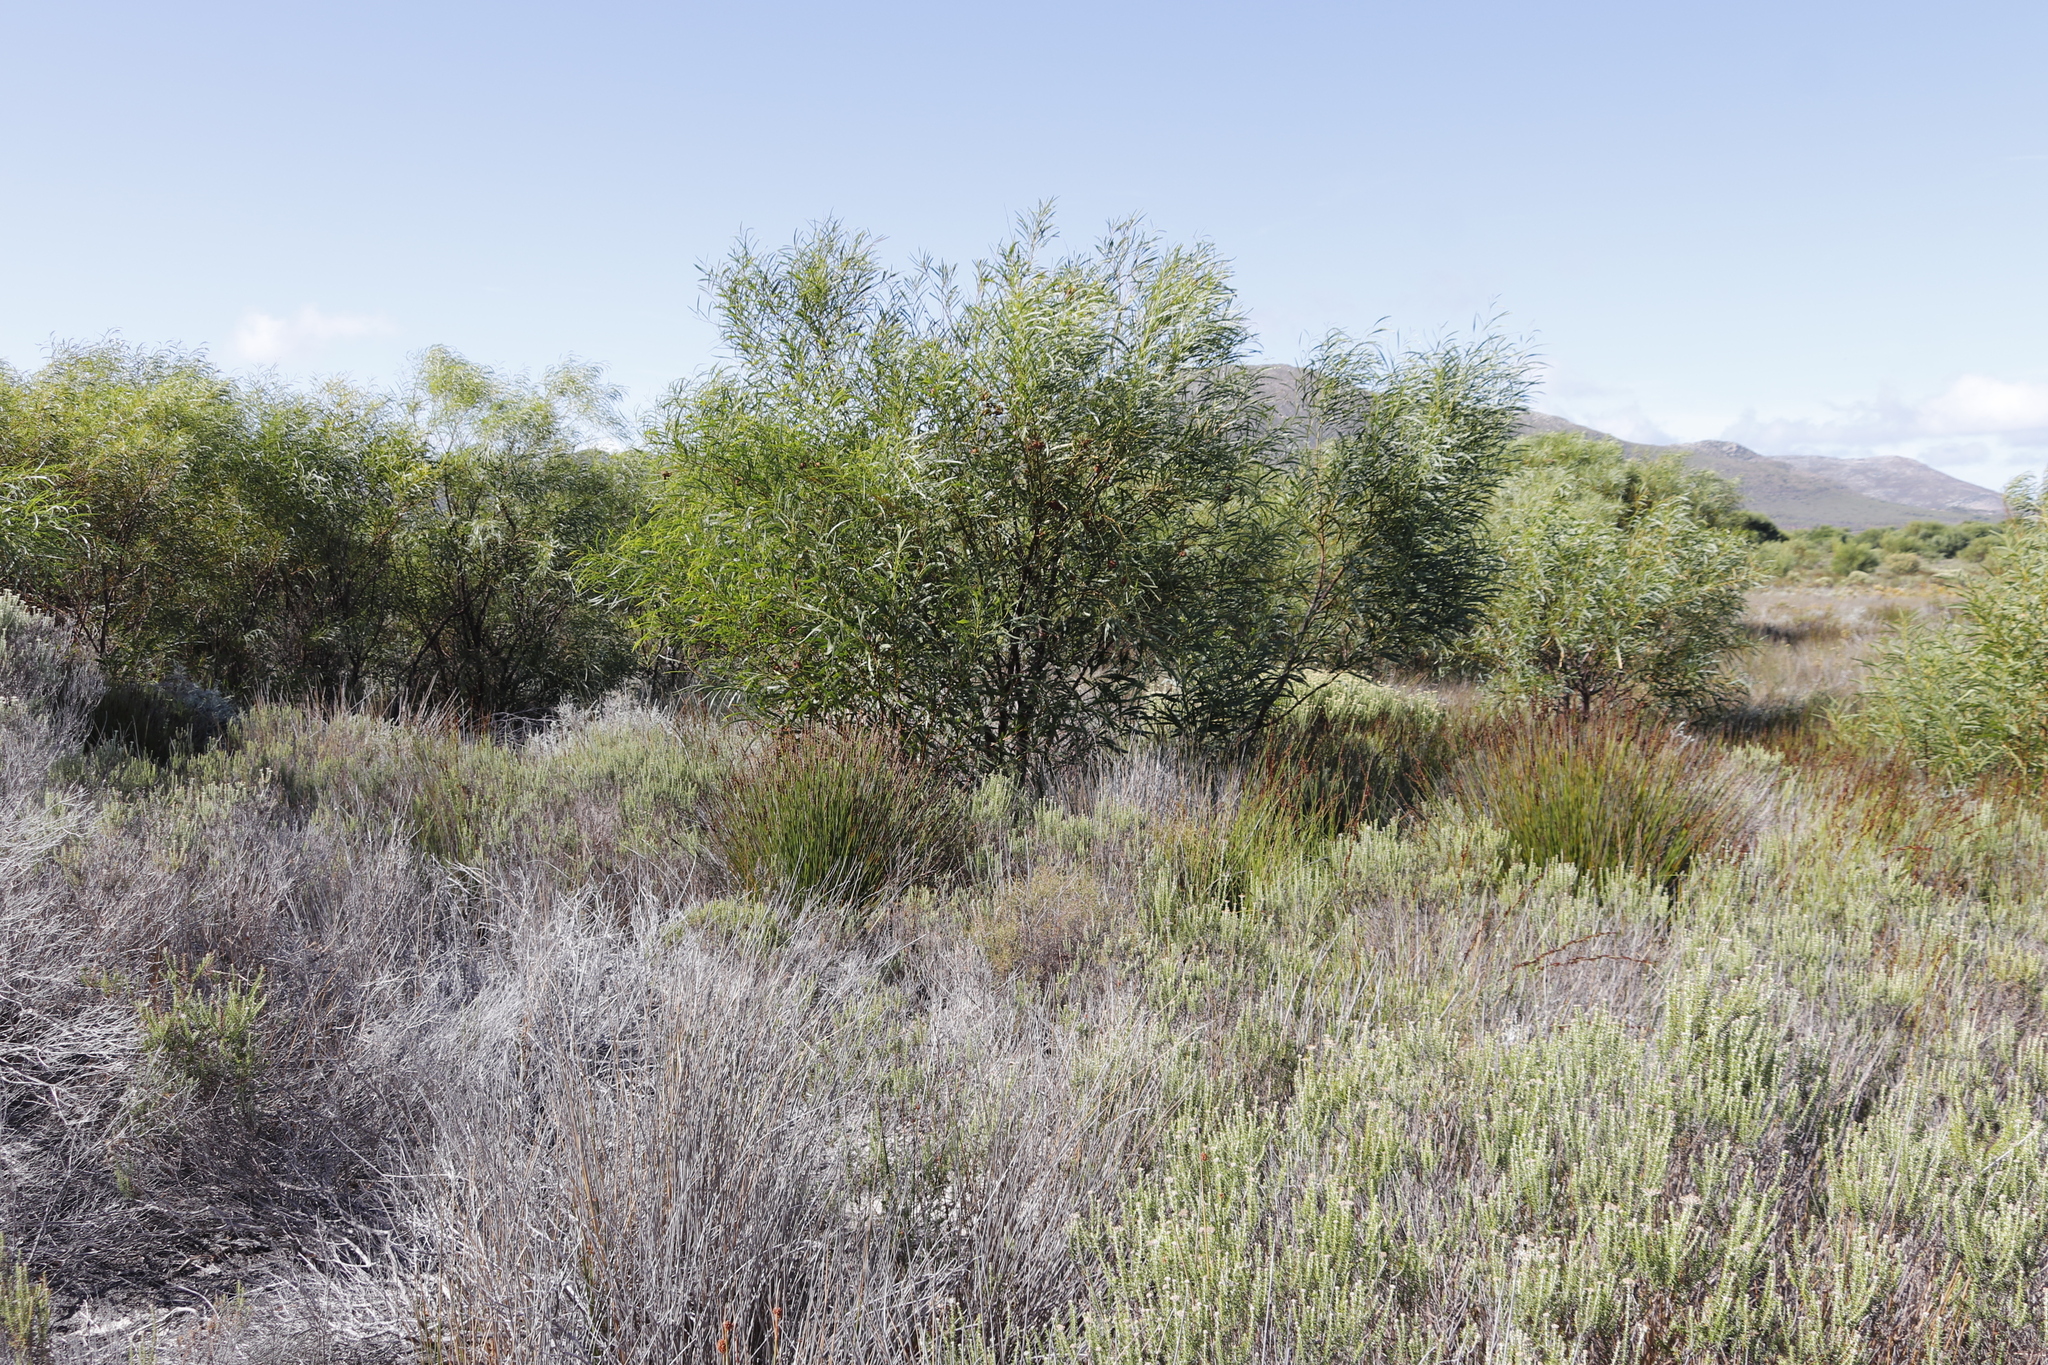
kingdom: Plantae
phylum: Tracheophyta
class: Magnoliopsida
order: Fabales
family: Fabaceae
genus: Acacia
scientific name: Acacia saligna
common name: Orange wattle
